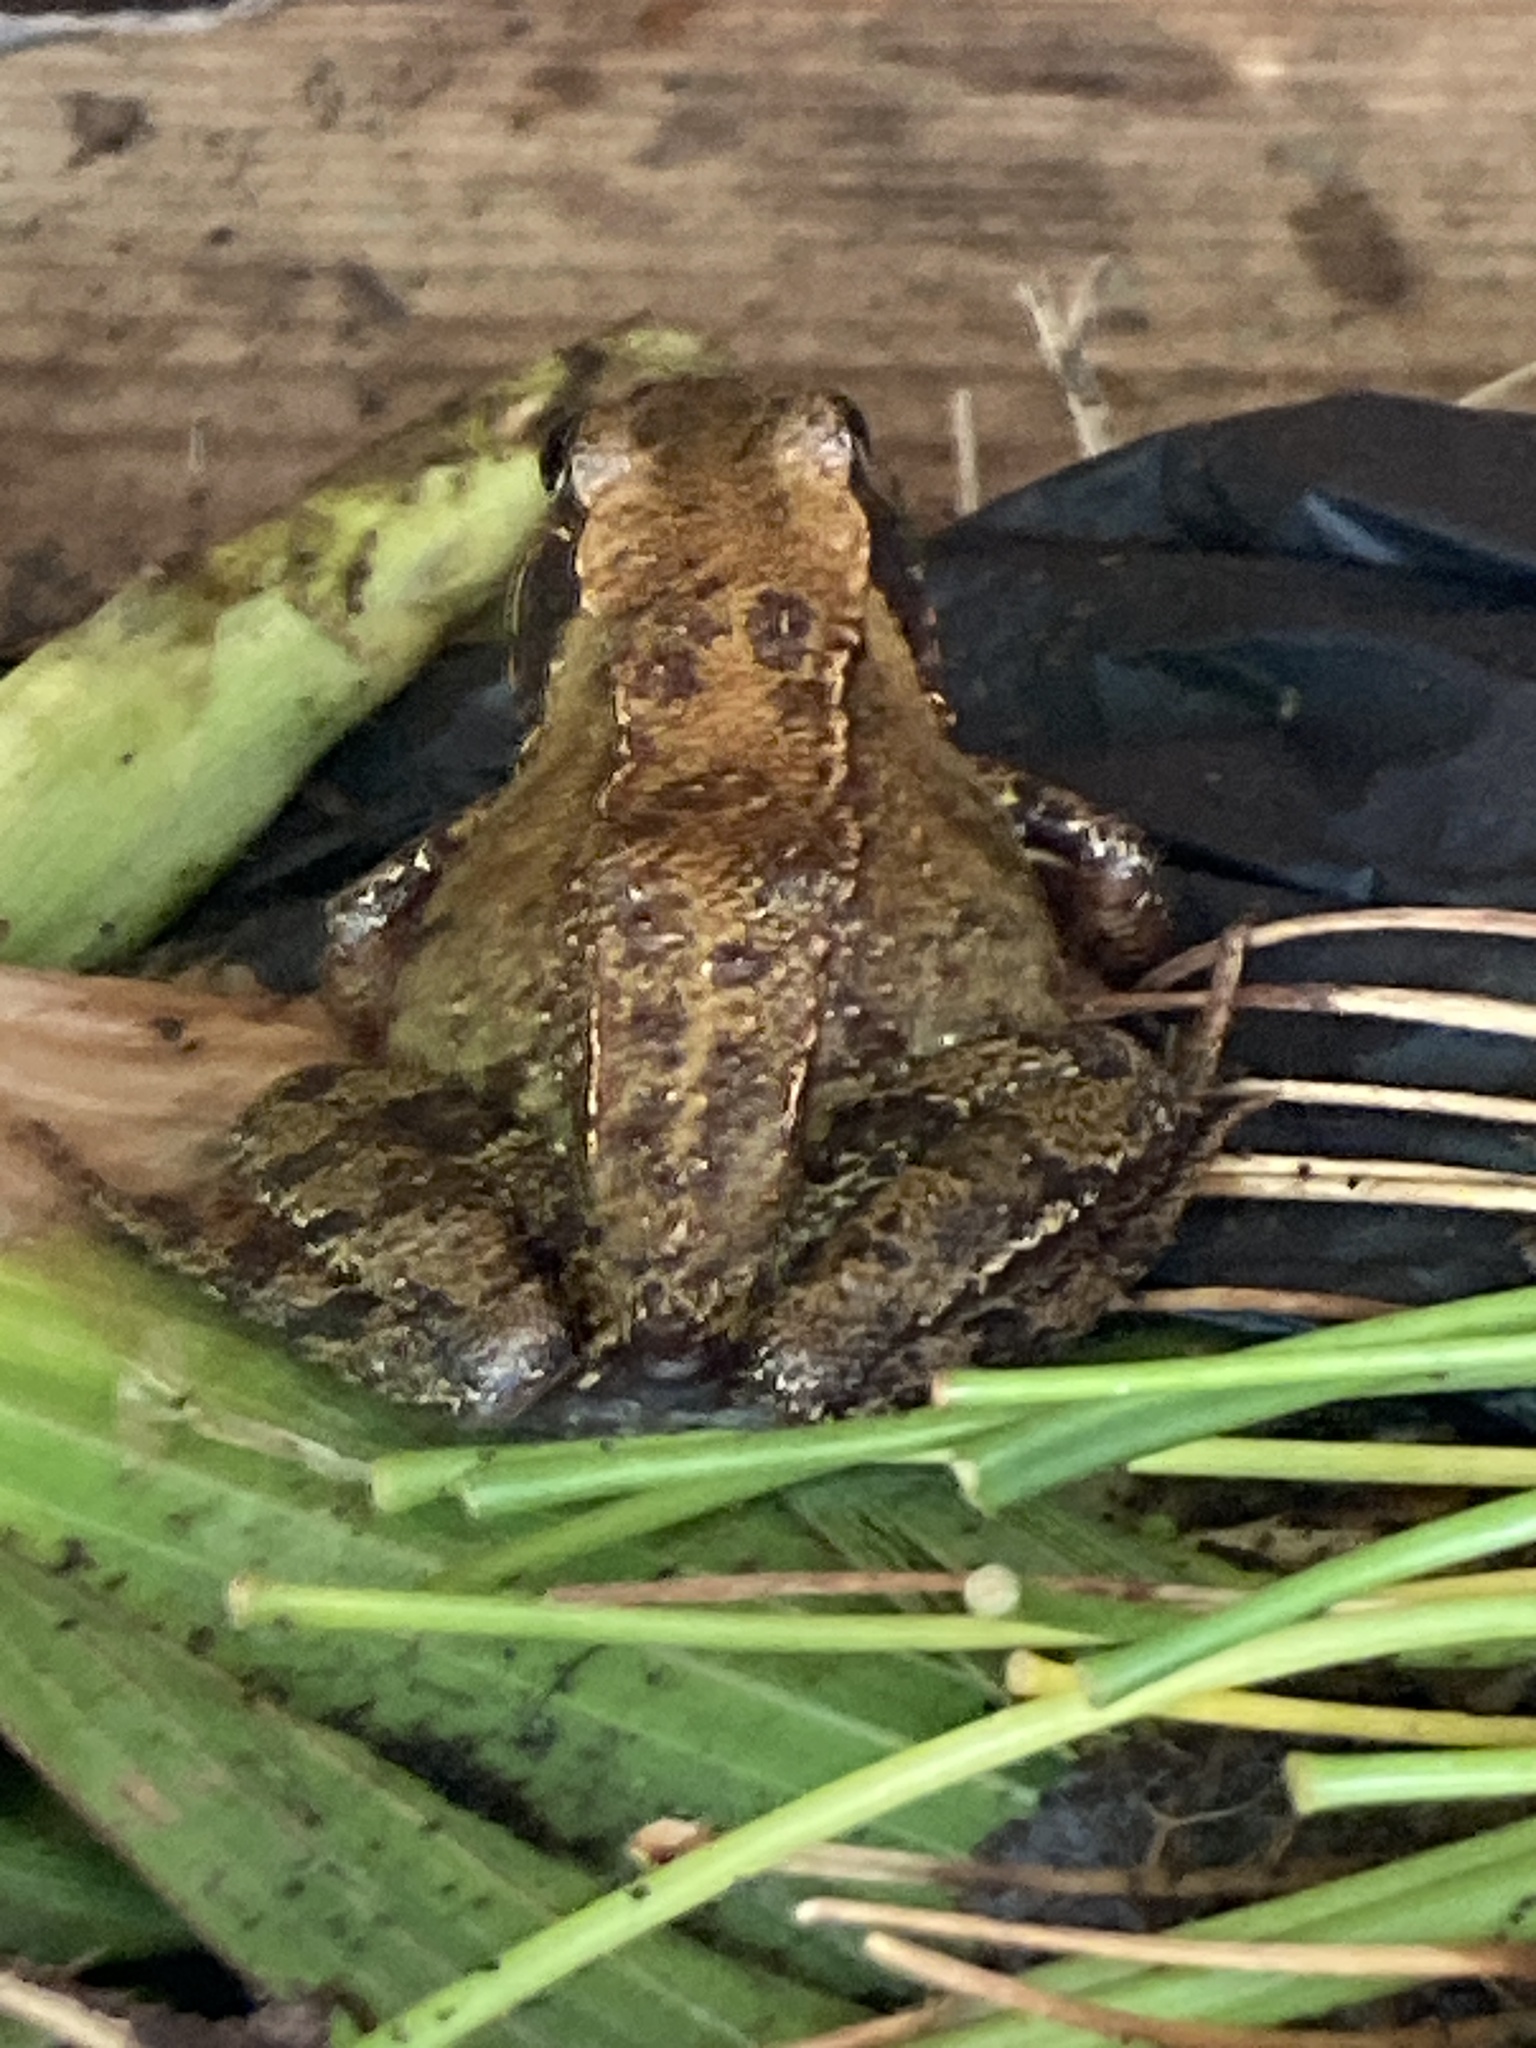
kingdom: Animalia
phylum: Chordata
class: Amphibia
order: Anura
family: Ranidae
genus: Rana
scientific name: Rana temporaria
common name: Common frog
